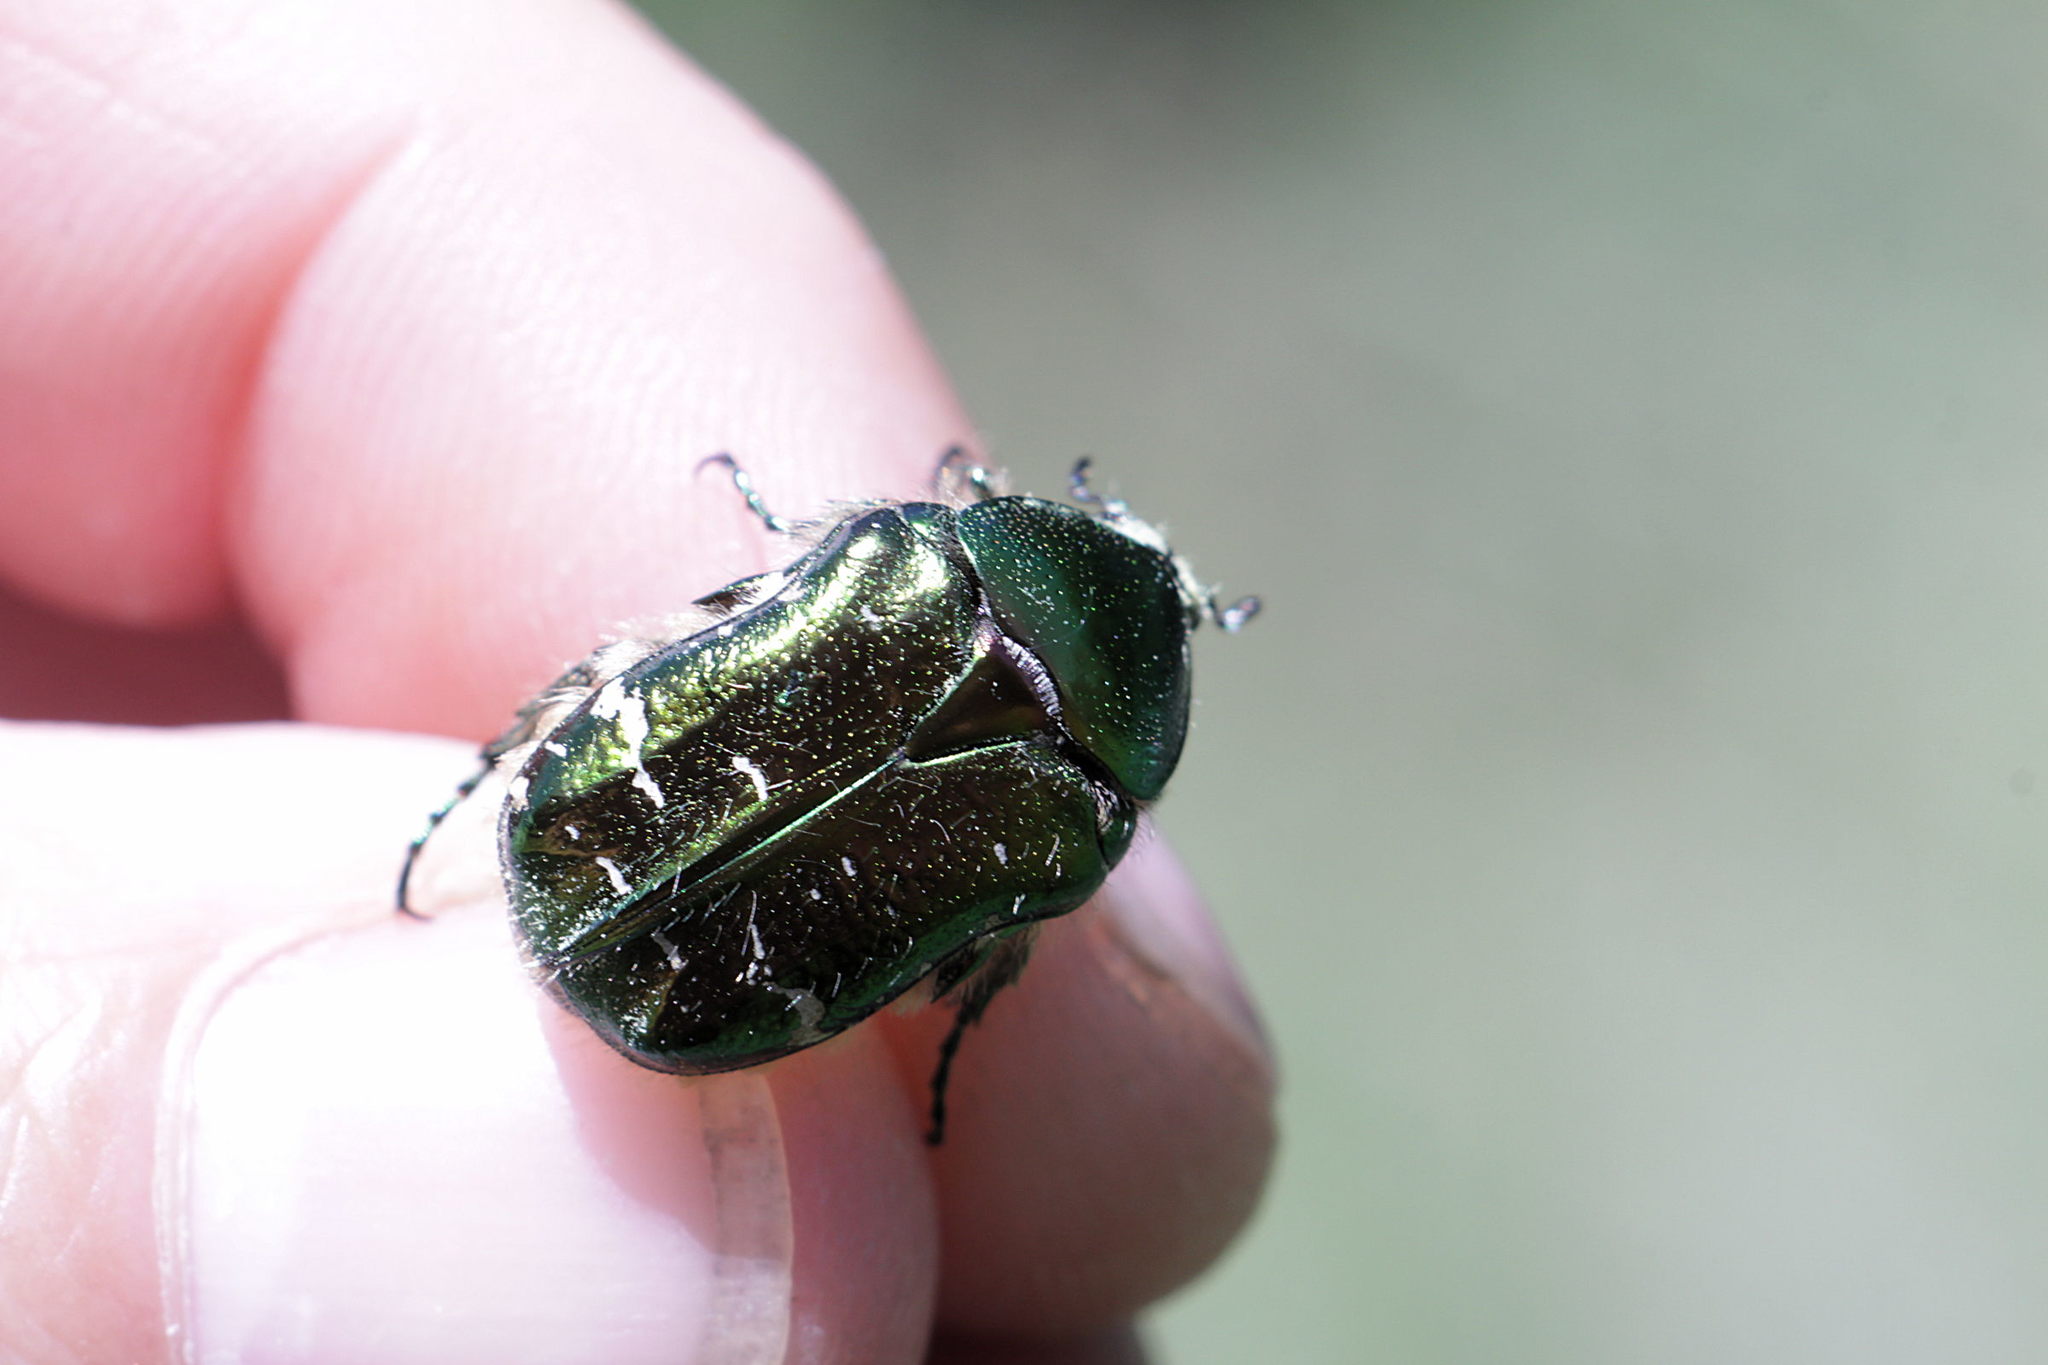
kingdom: Animalia
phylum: Arthropoda
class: Insecta
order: Coleoptera
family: Scarabaeidae
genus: Cetonia
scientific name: Cetonia aurata
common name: Rose chafer
